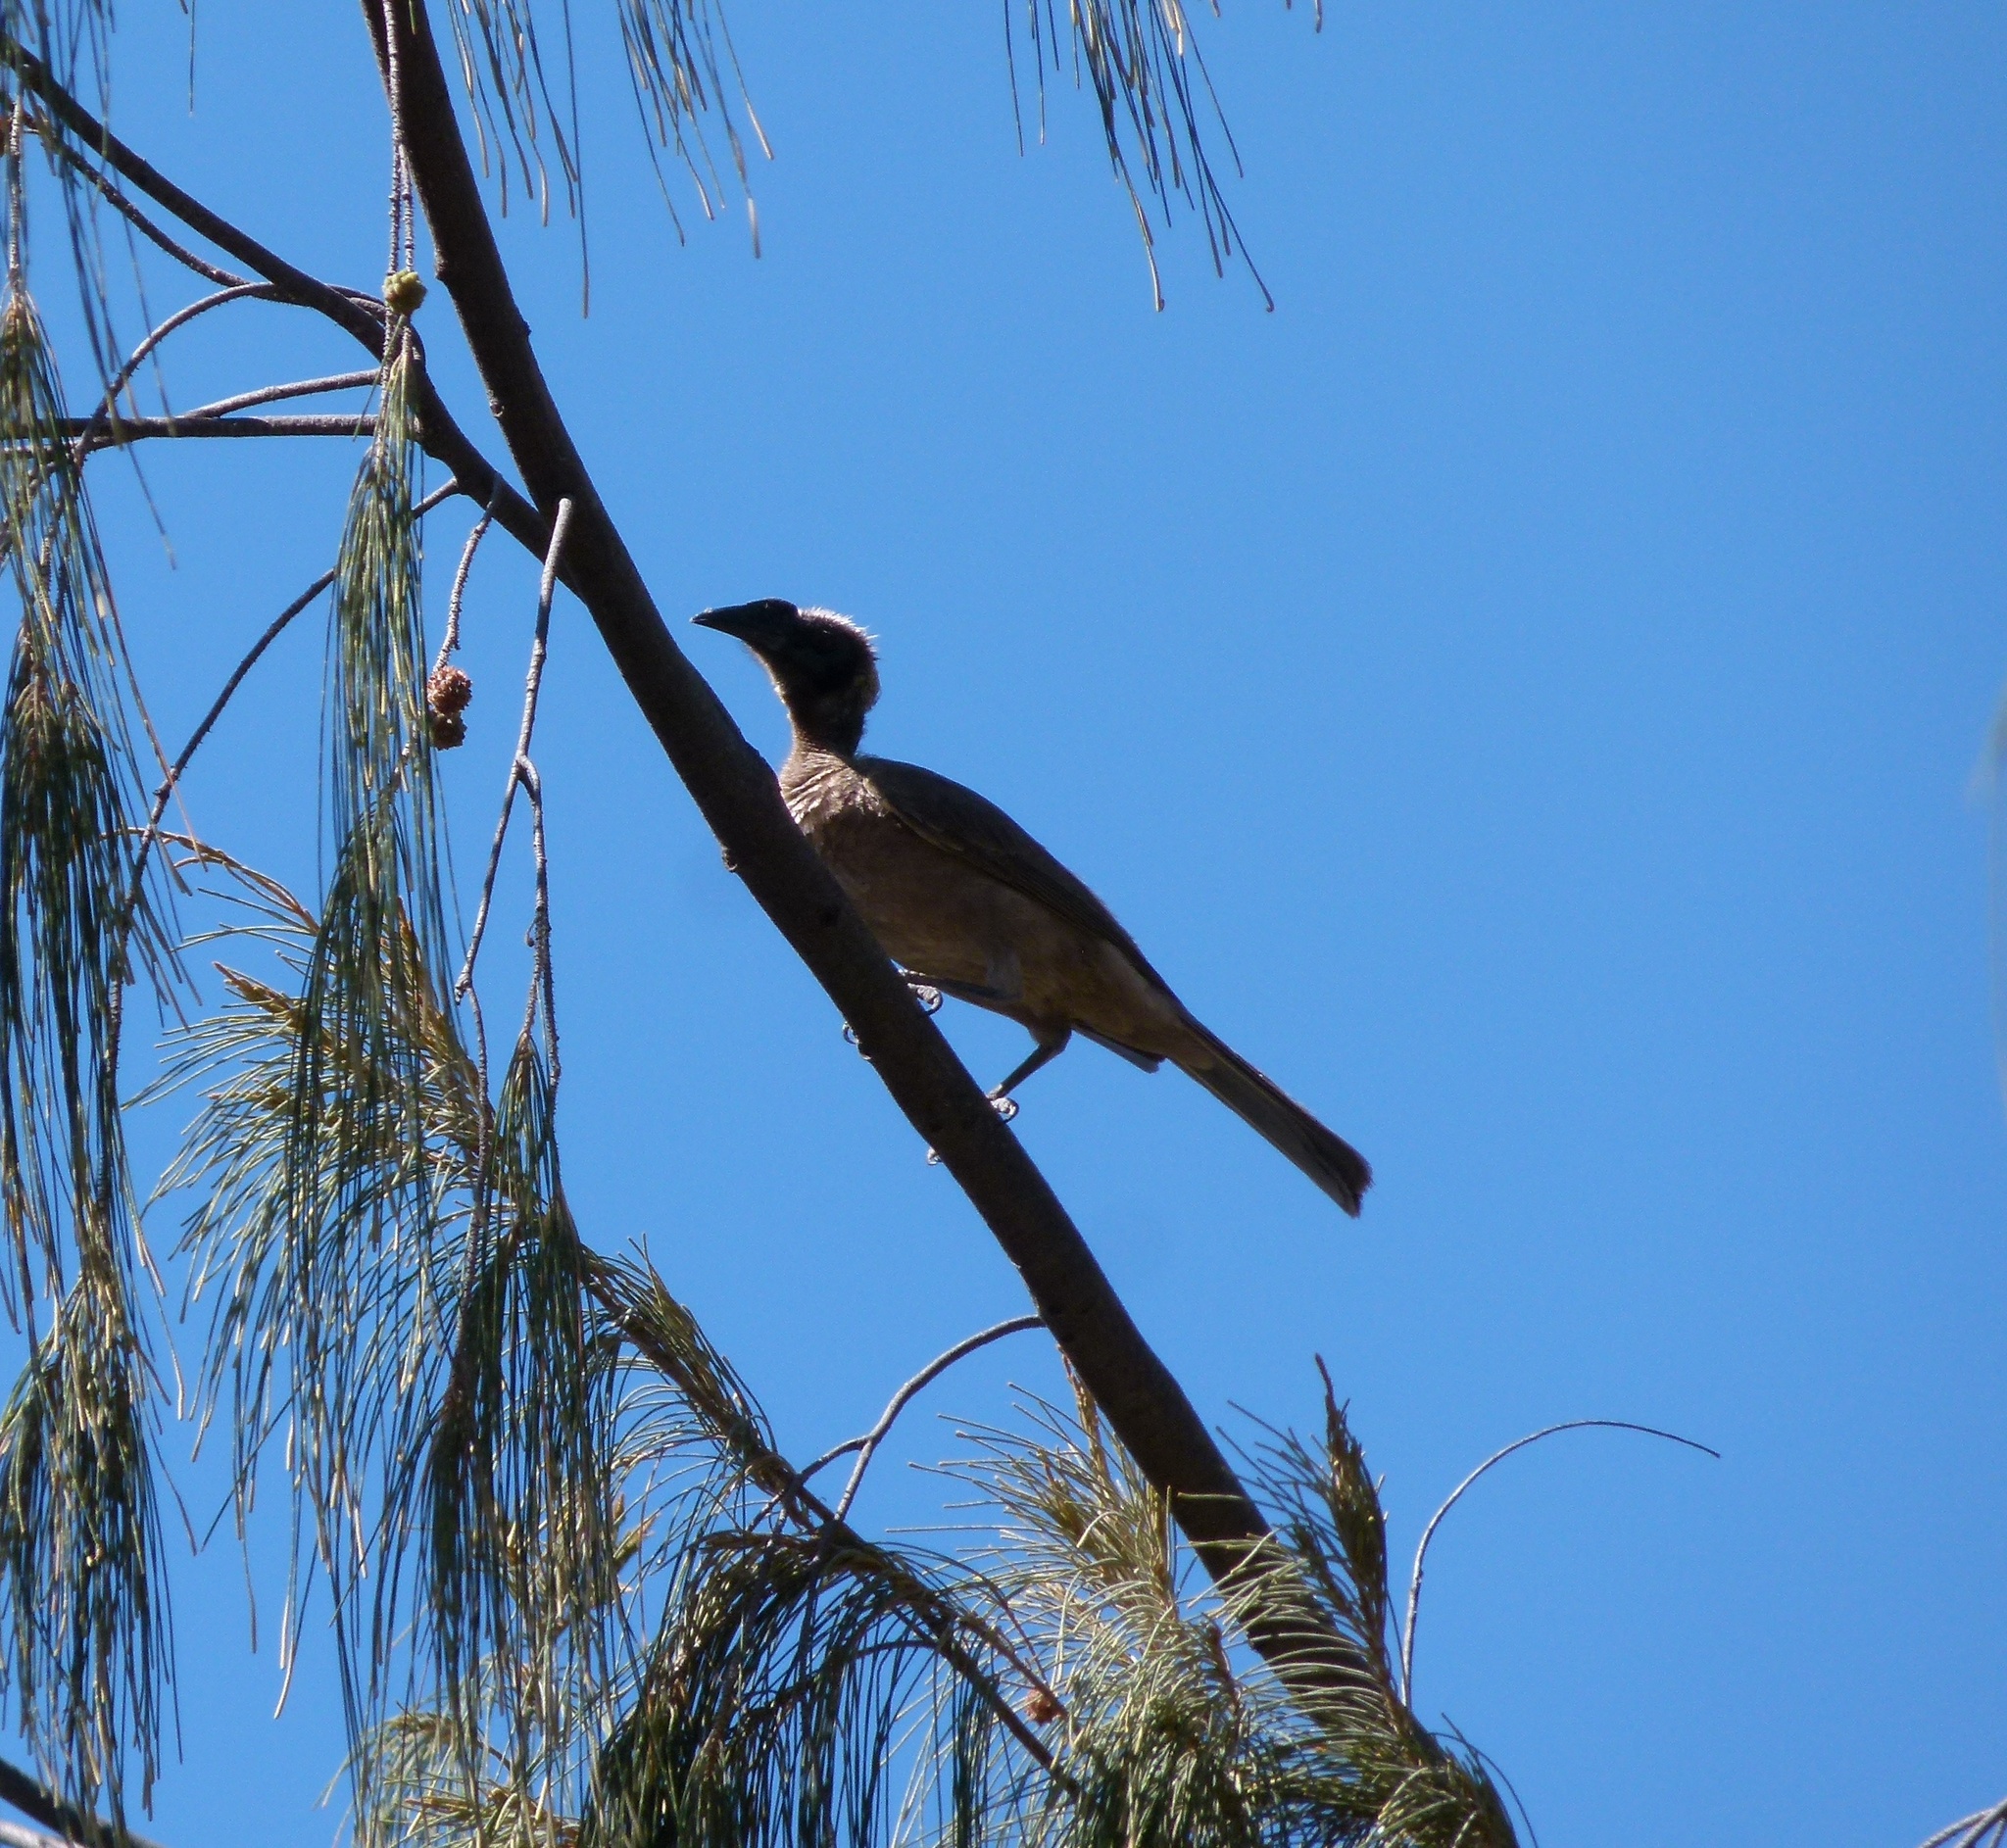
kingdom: Animalia
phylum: Chordata
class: Aves
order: Passeriformes
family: Meliphagidae
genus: Philemon
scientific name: Philemon argenticeps
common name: Silver-crowned friarbird
